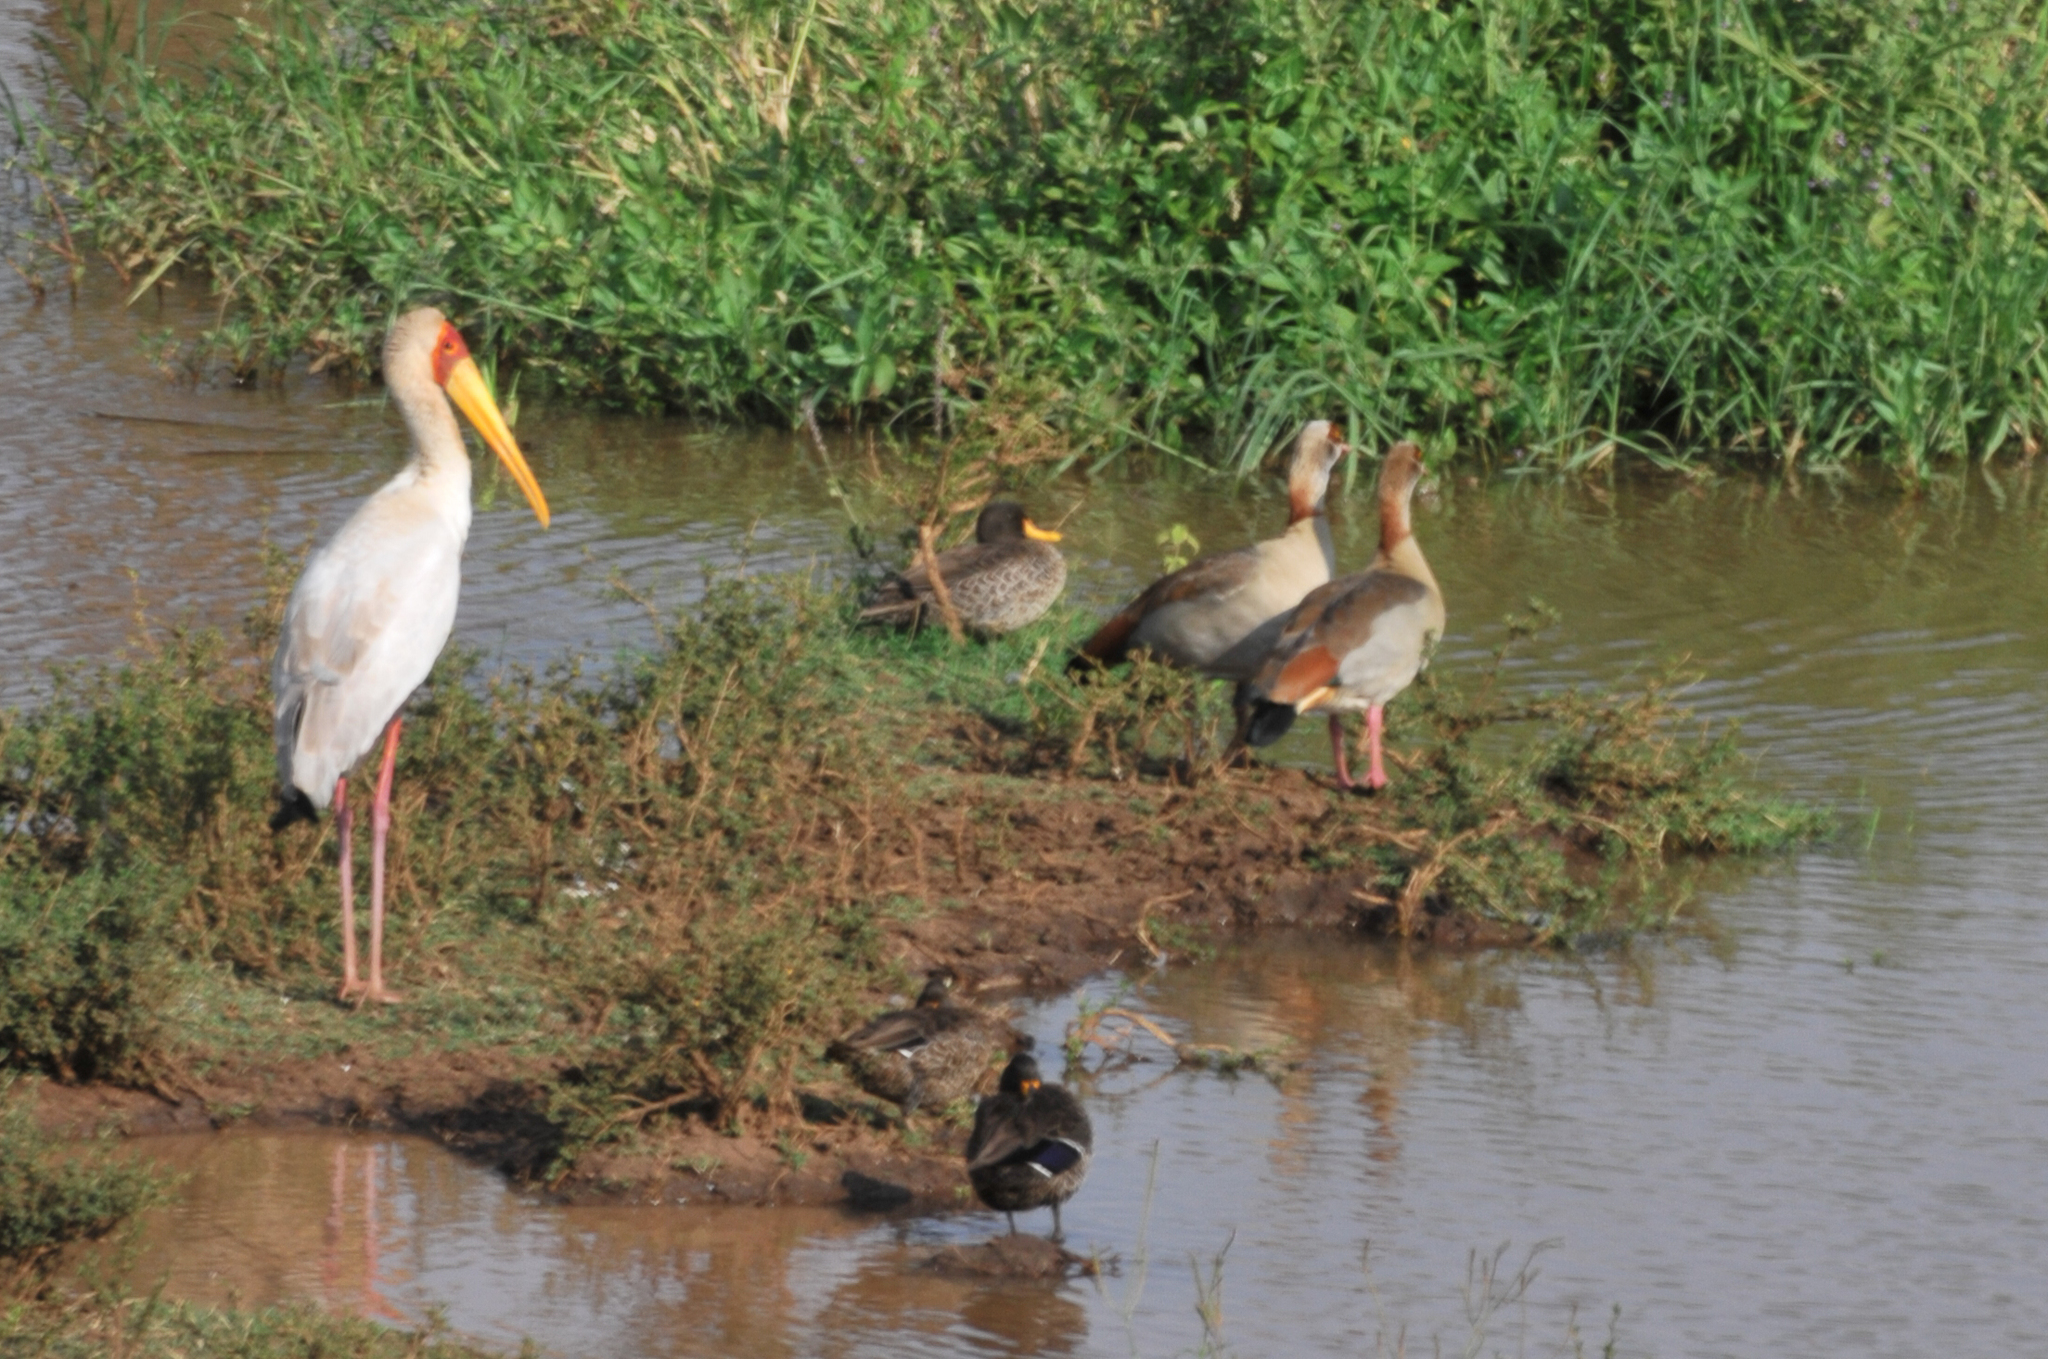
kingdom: Animalia
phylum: Chordata
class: Aves
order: Anseriformes
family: Anatidae
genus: Alopochen
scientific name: Alopochen aegyptiaca
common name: Egyptian goose
